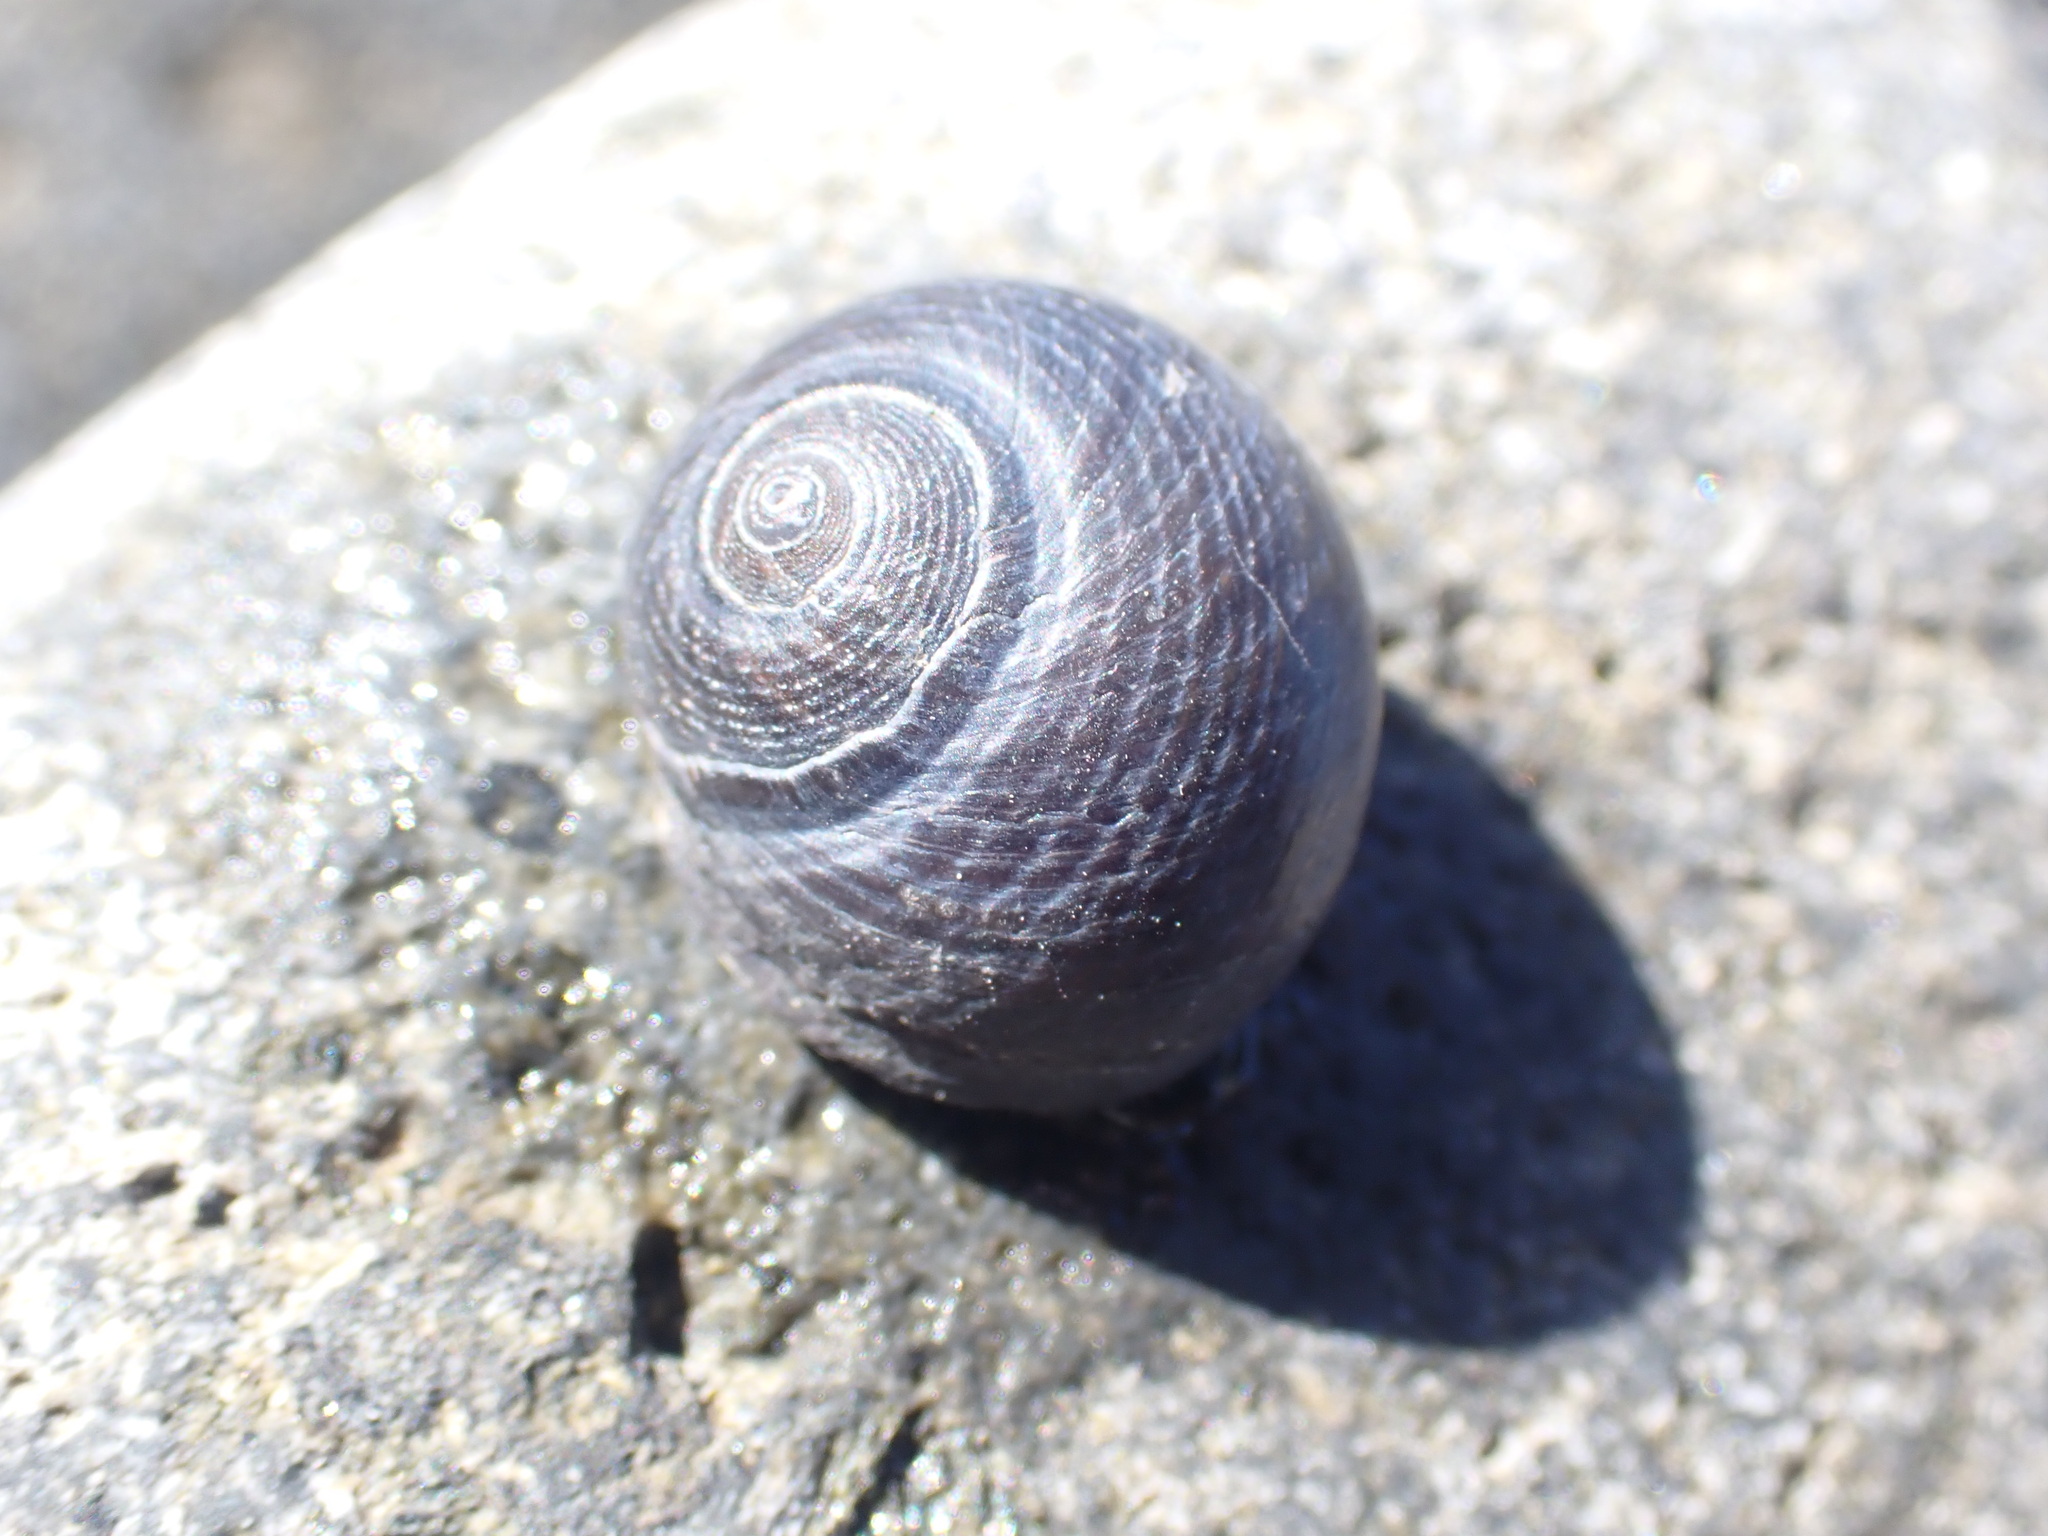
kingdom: Animalia
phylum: Mollusca
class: Gastropoda
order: Trochida
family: Trochidae
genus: Diloma
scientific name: Diloma nigerrimum
